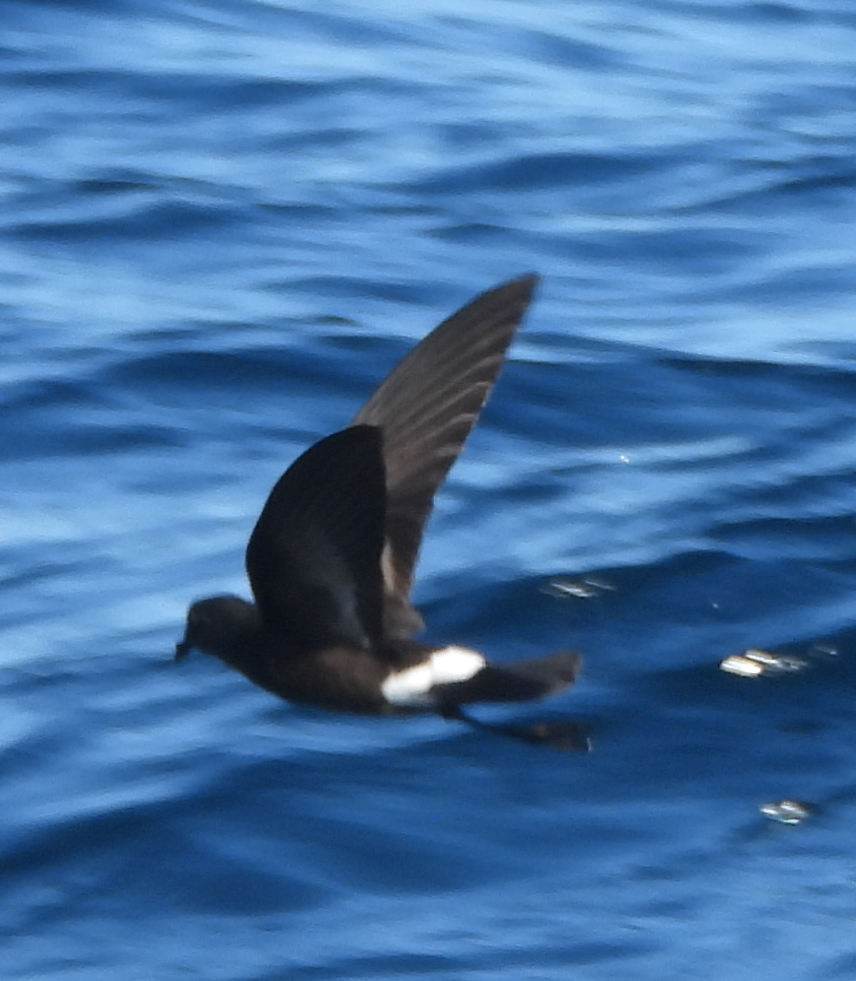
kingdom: Animalia
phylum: Chordata
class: Aves
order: Procellariiformes
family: Hydrobatidae
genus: Oceanites
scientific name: Oceanites oceanicus
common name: Wilson's storm petrel
